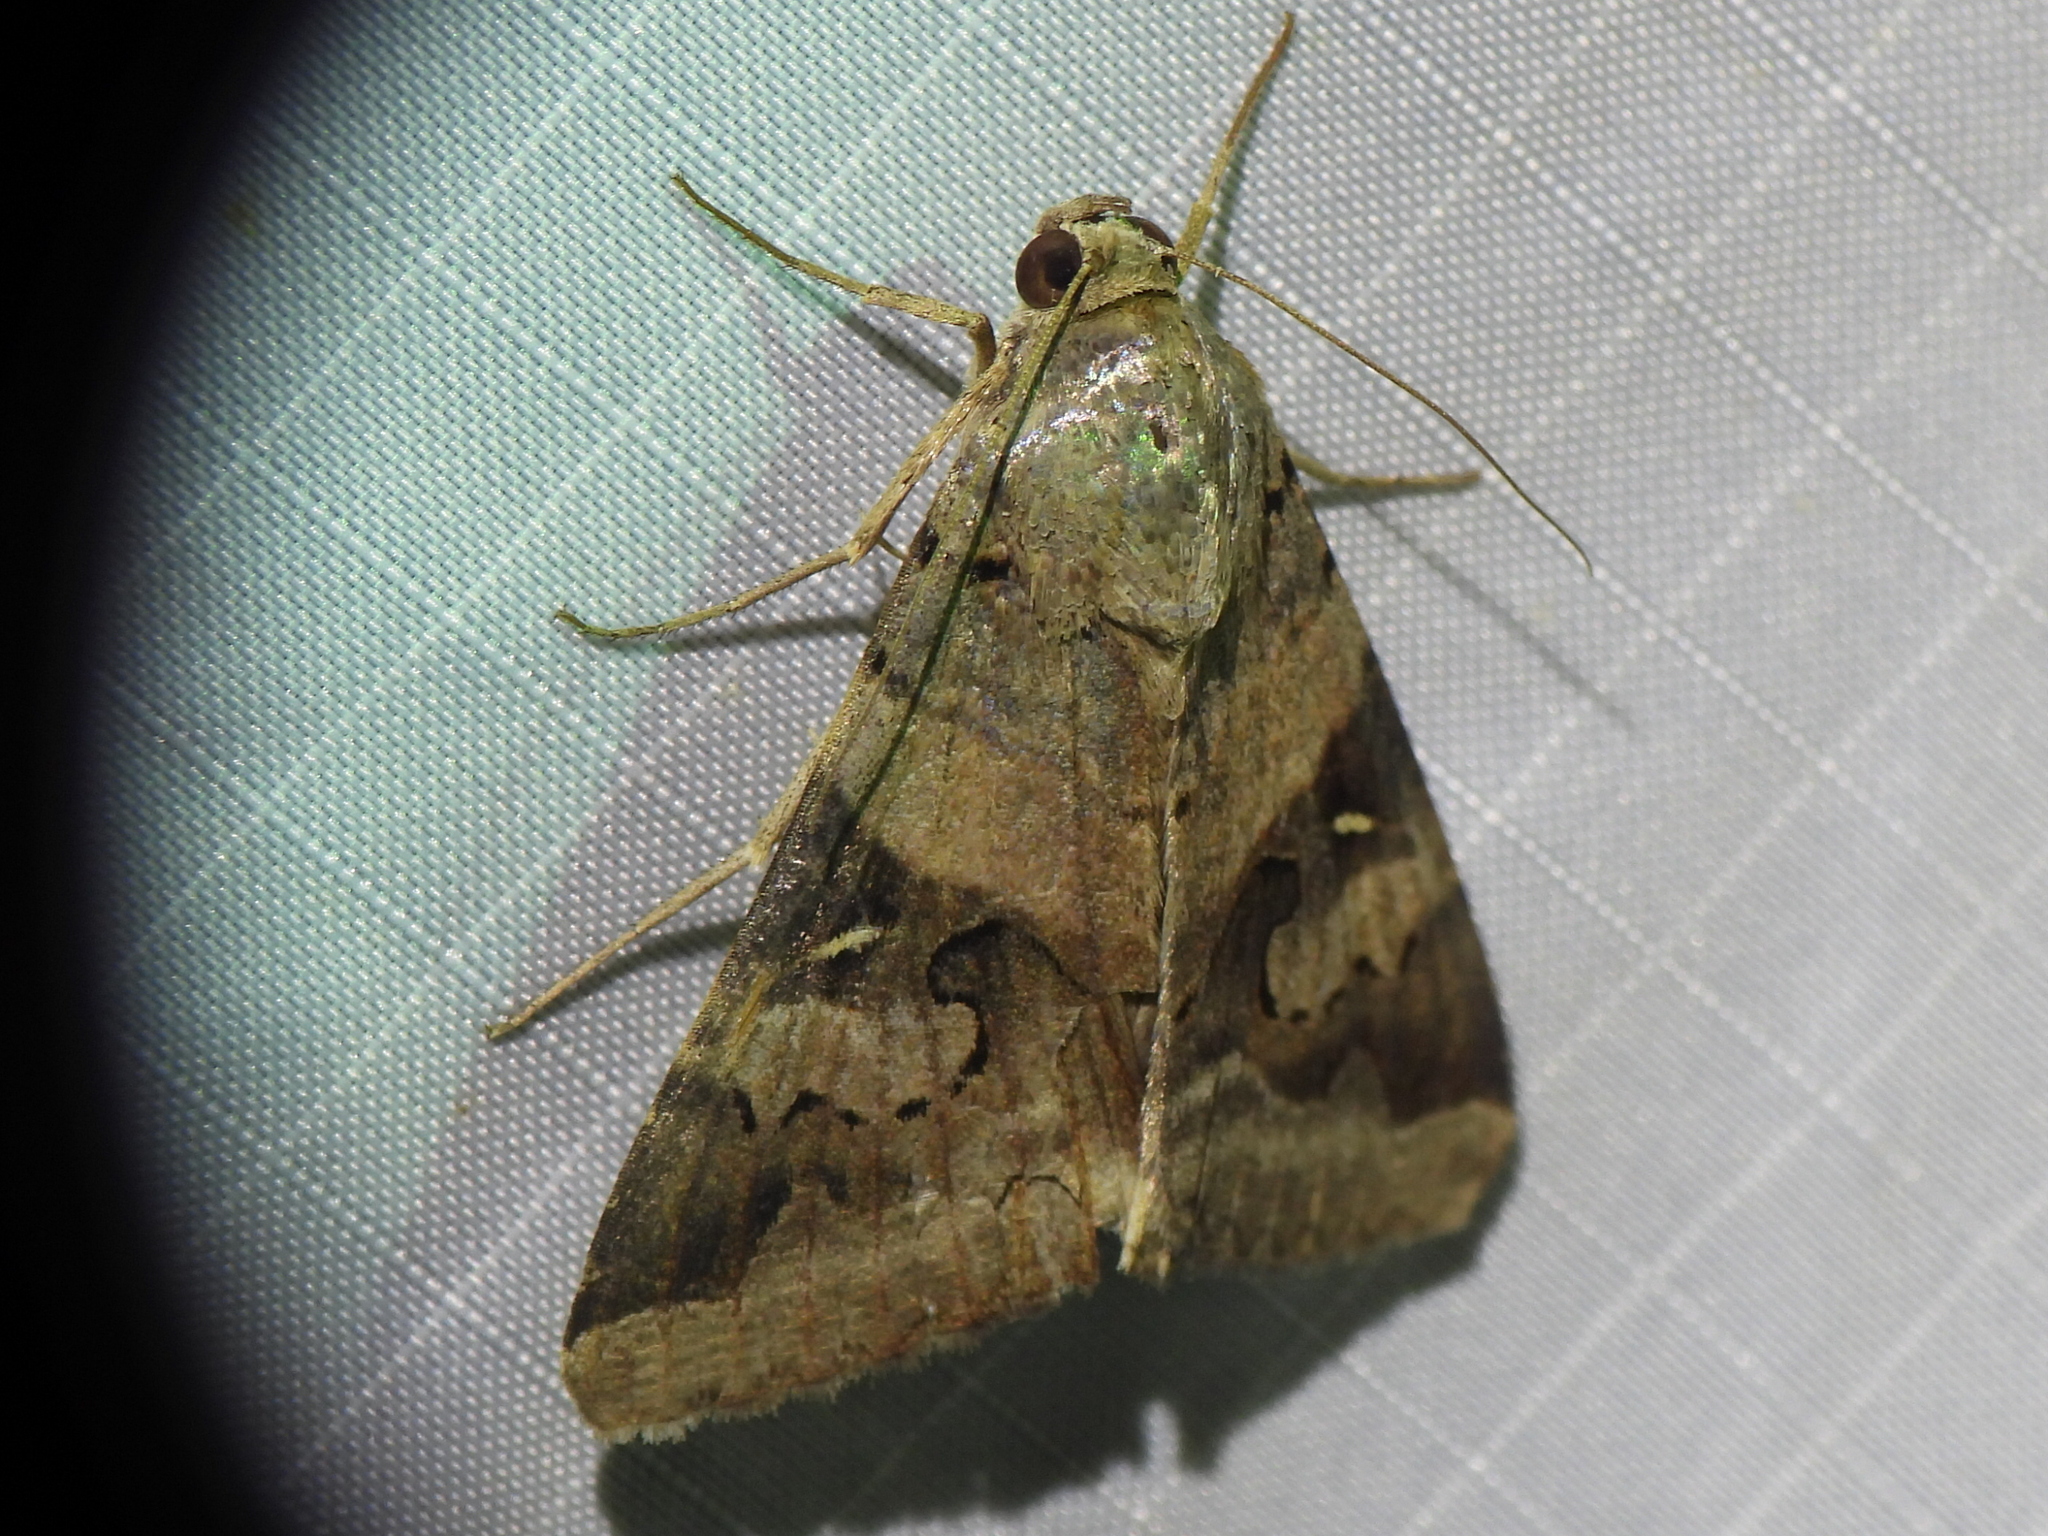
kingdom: Animalia
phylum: Arthropoda
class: Insecta
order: Lepidoptera
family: Erebidae
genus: Melipotis
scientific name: Melipotis indomita
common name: Moth
